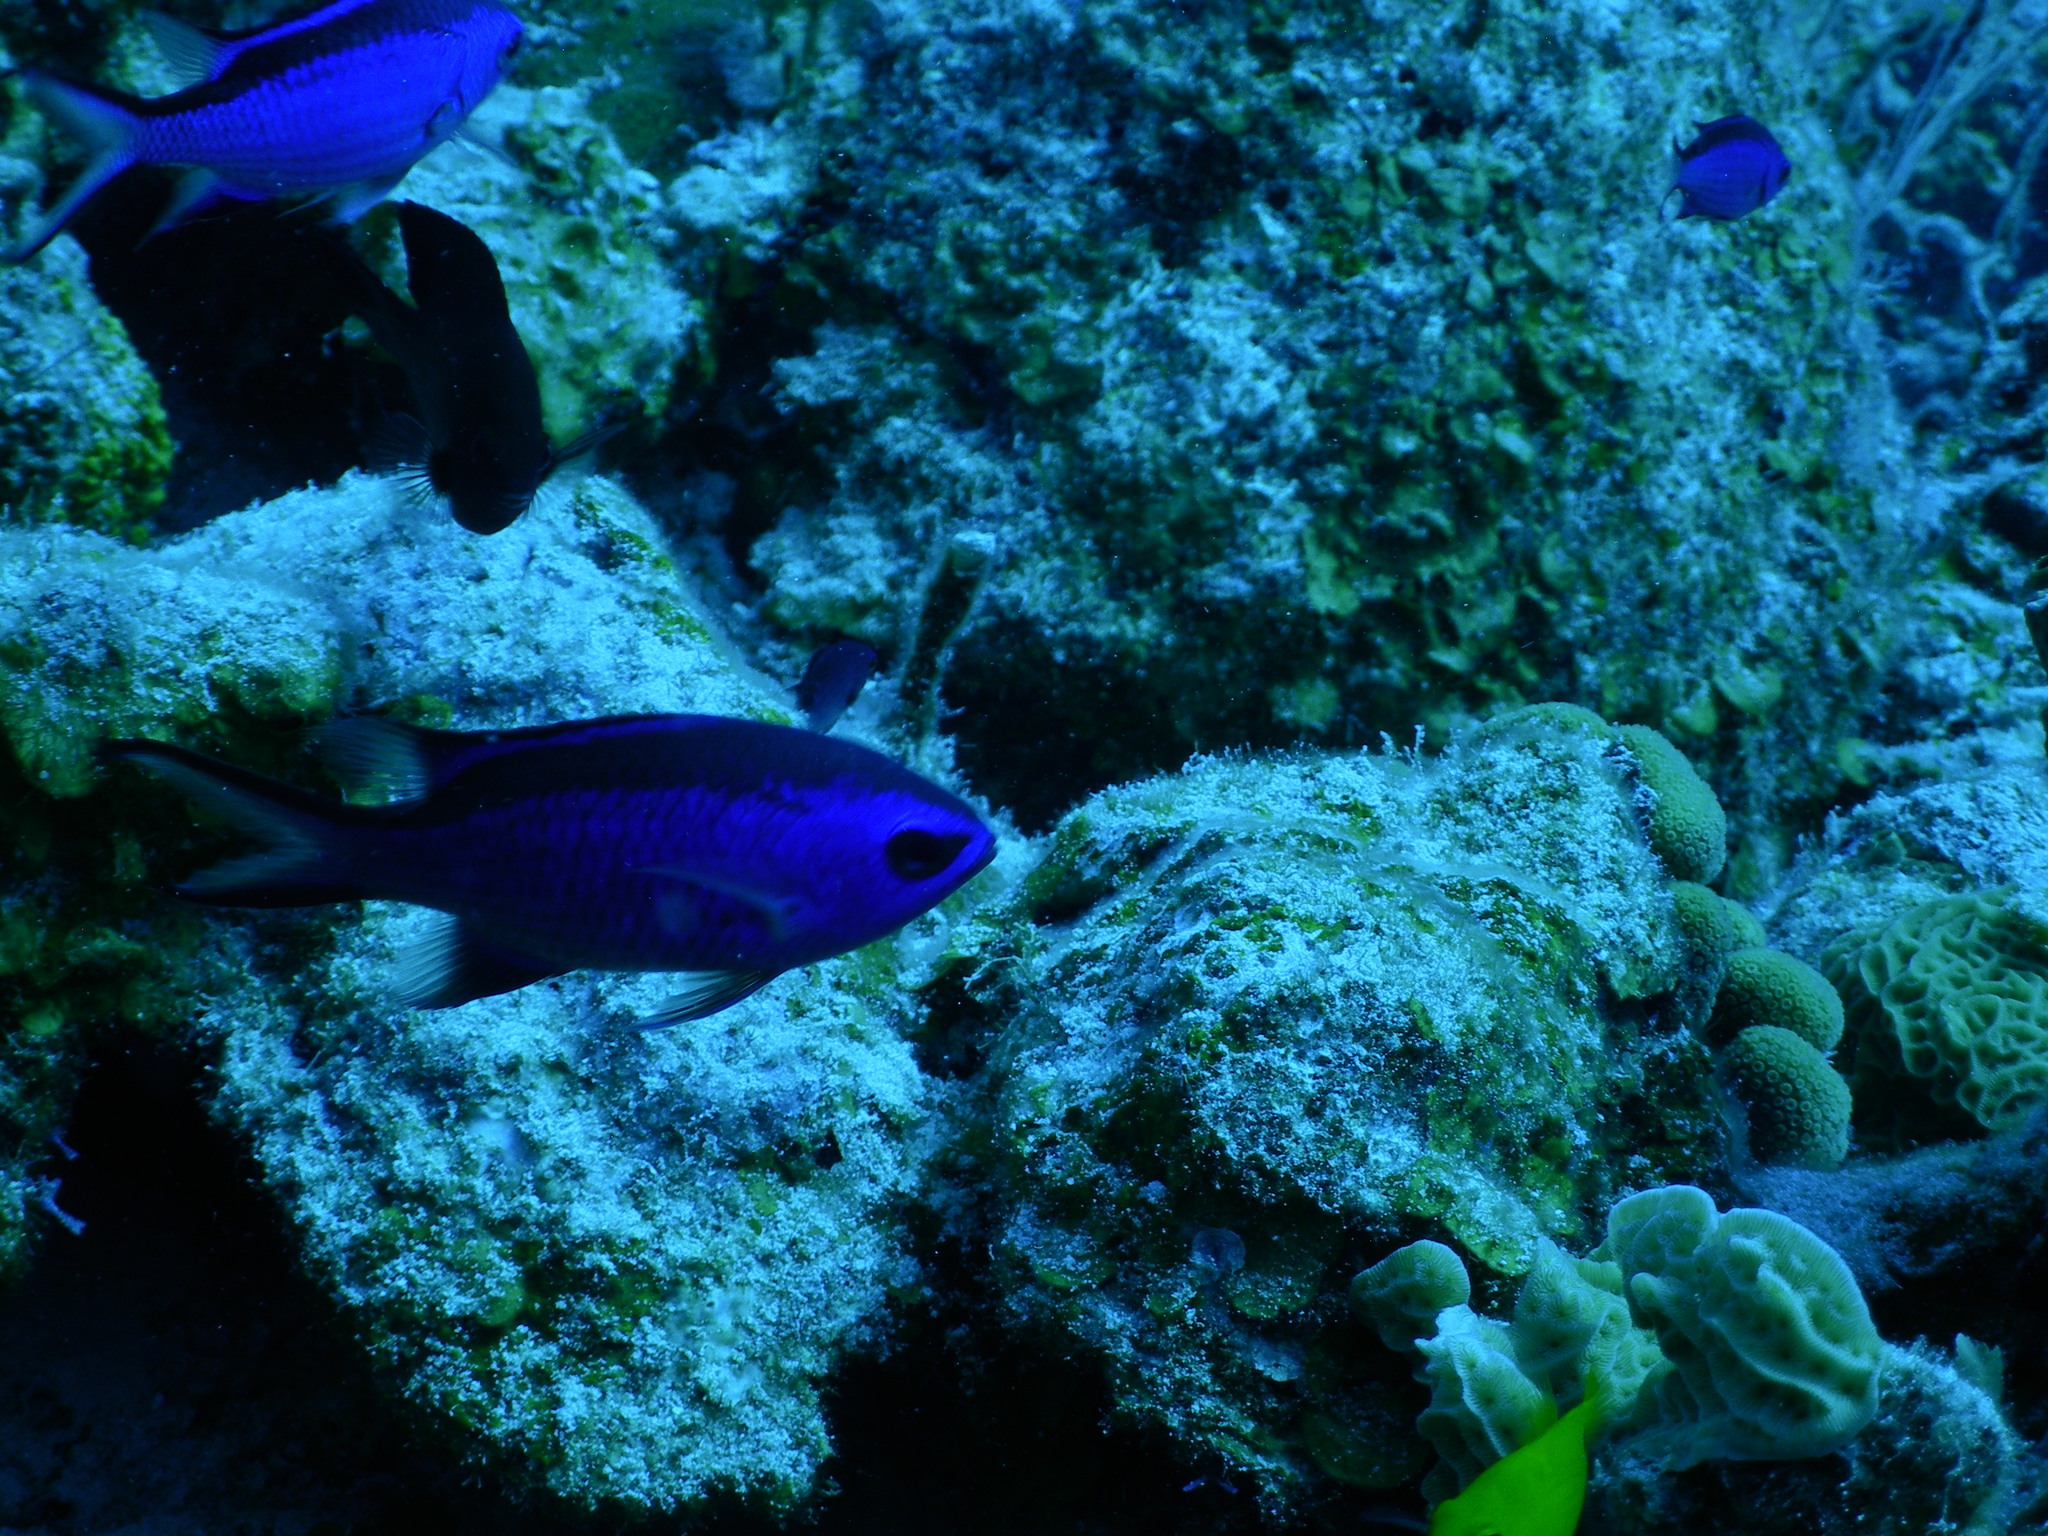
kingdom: Animalia
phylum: Chordata
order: Perciformes
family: Pomacentridae
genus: Chromis
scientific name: Chromis cyanea
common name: Blue chromis
